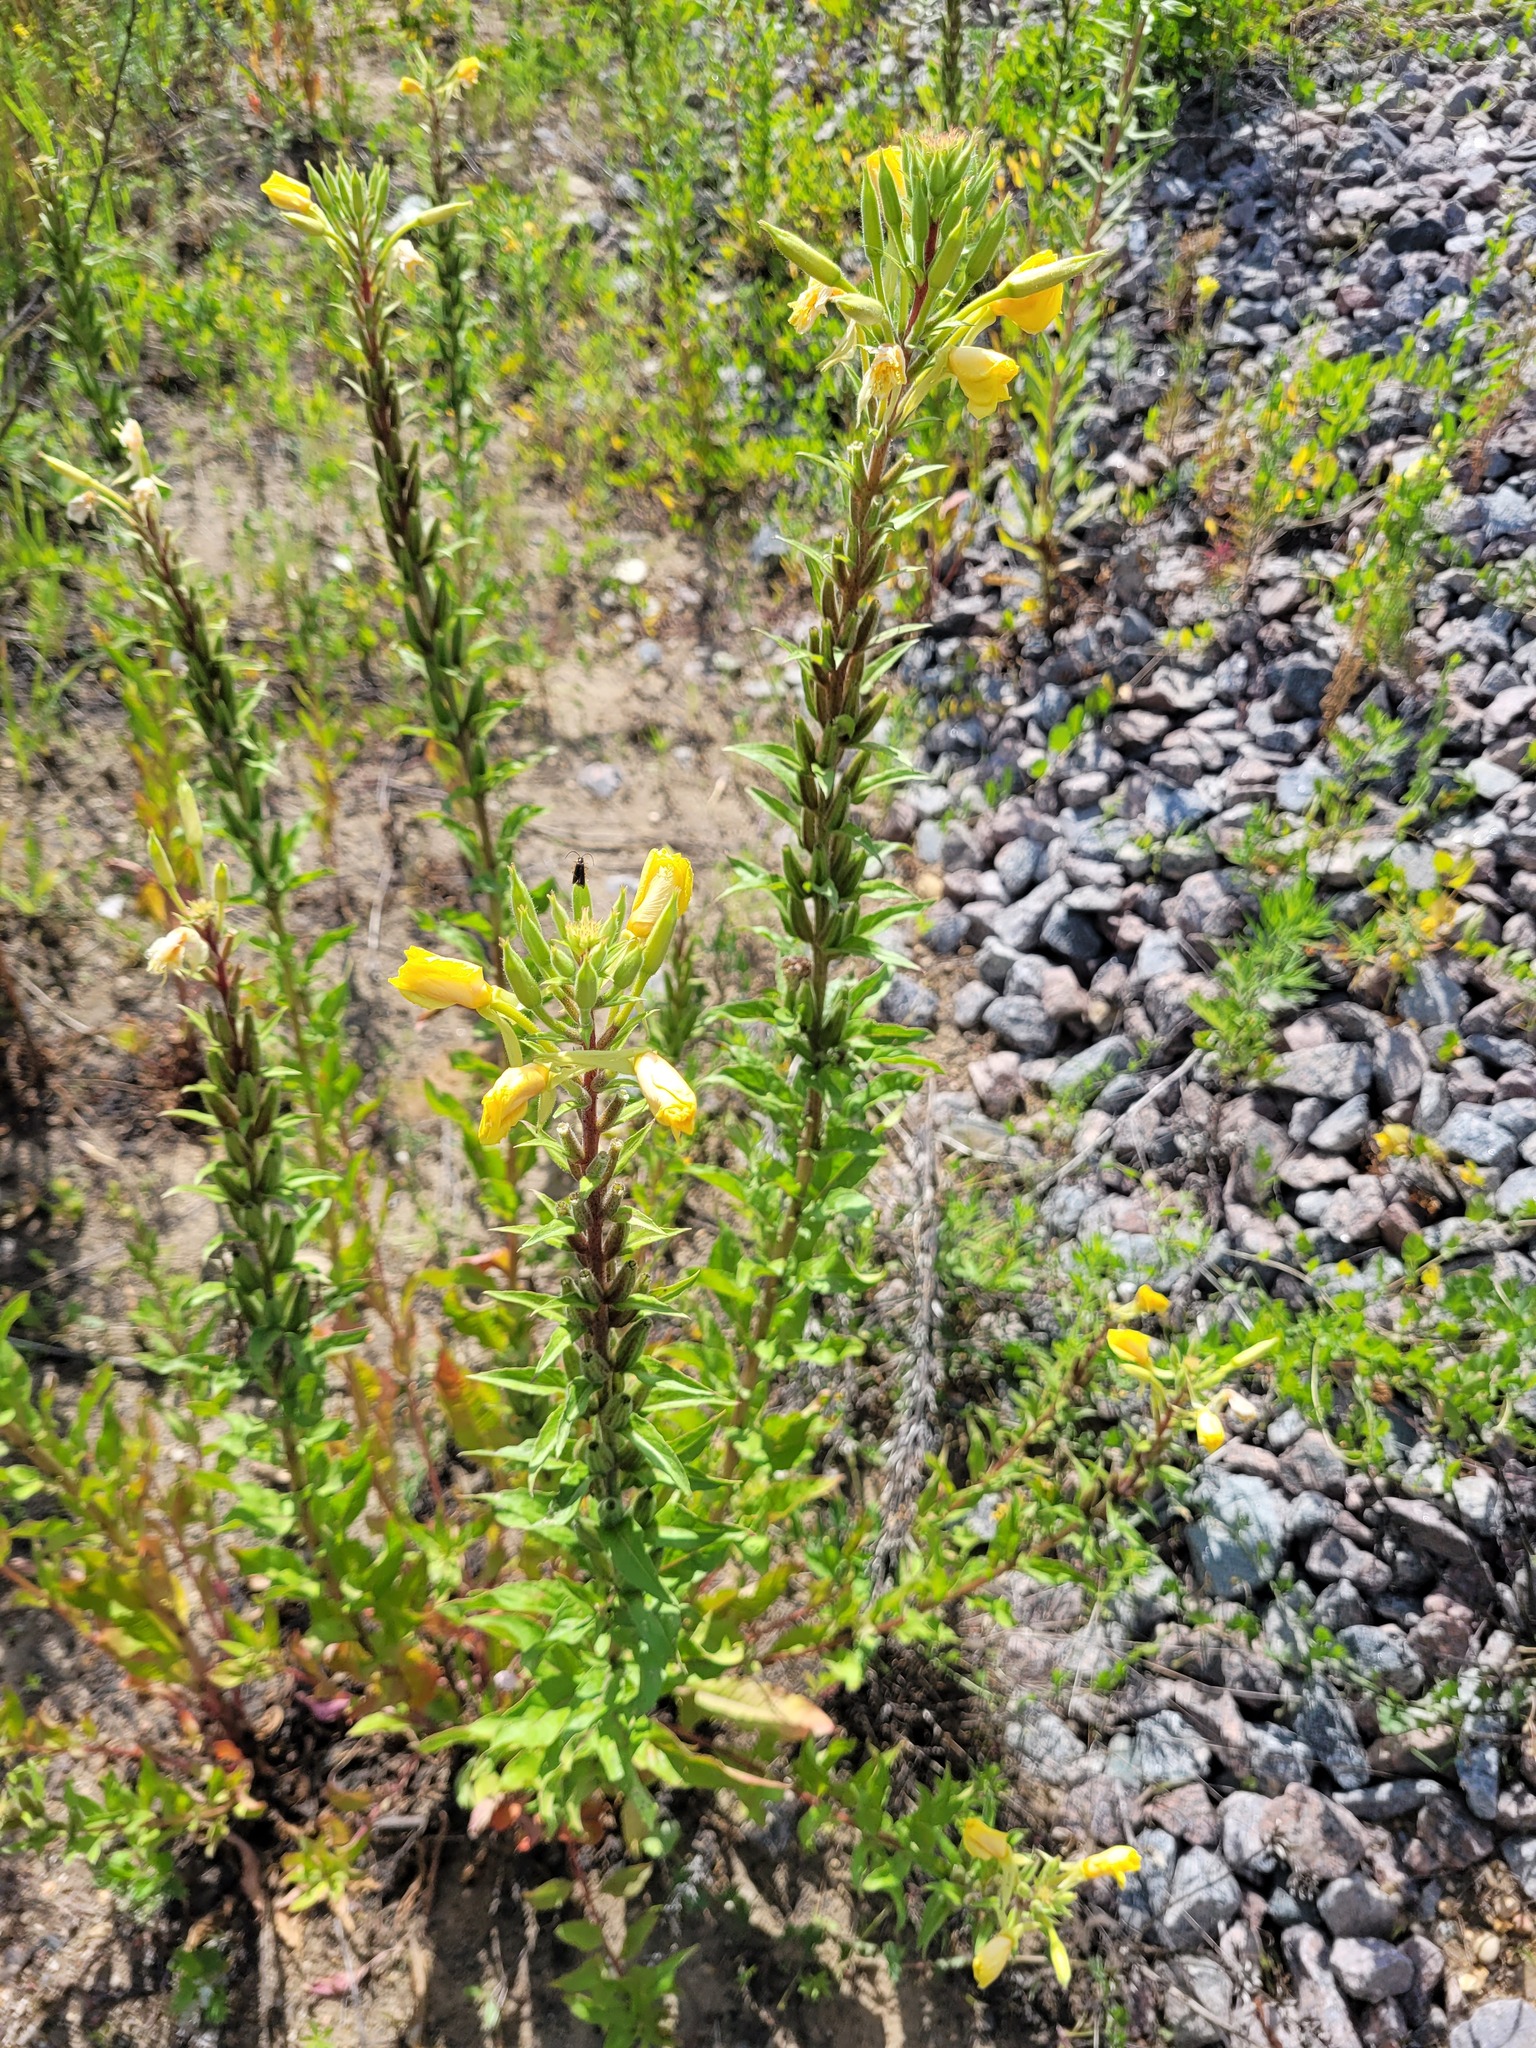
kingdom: Plantae
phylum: Tracheophyta
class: Magnoliopsida
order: Myrtales
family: Onagraceae
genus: Oenothera
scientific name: Oenothera rubricaulis
